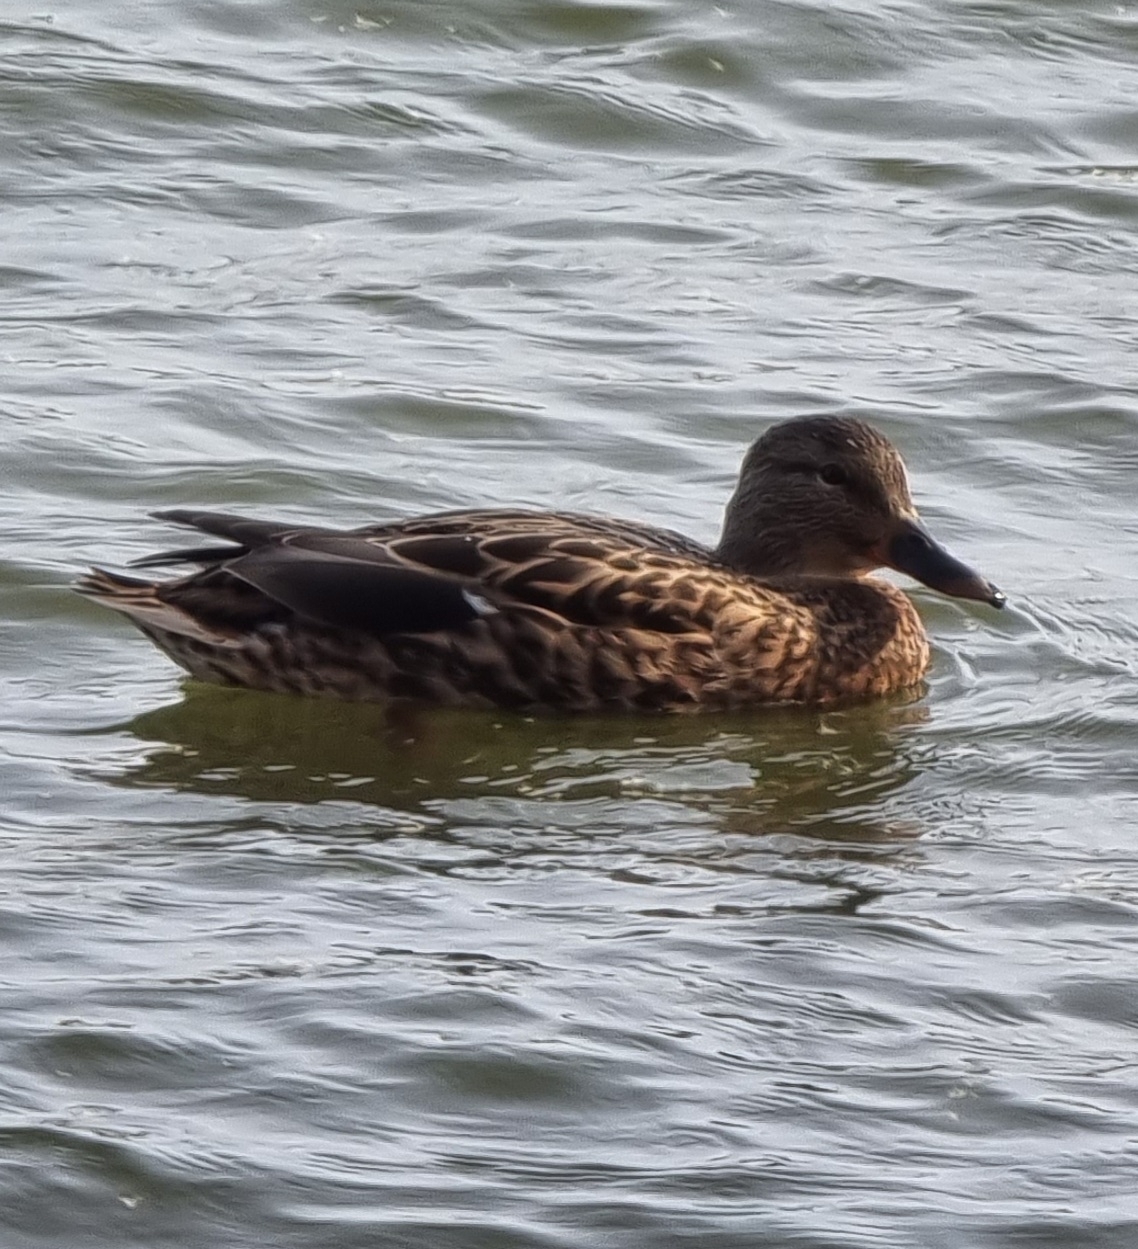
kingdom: Animalia
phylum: Chordata
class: Aves
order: Anseriformes
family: Anatidae
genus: Anas
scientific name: Anas platyrhynchos
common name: Mallard
